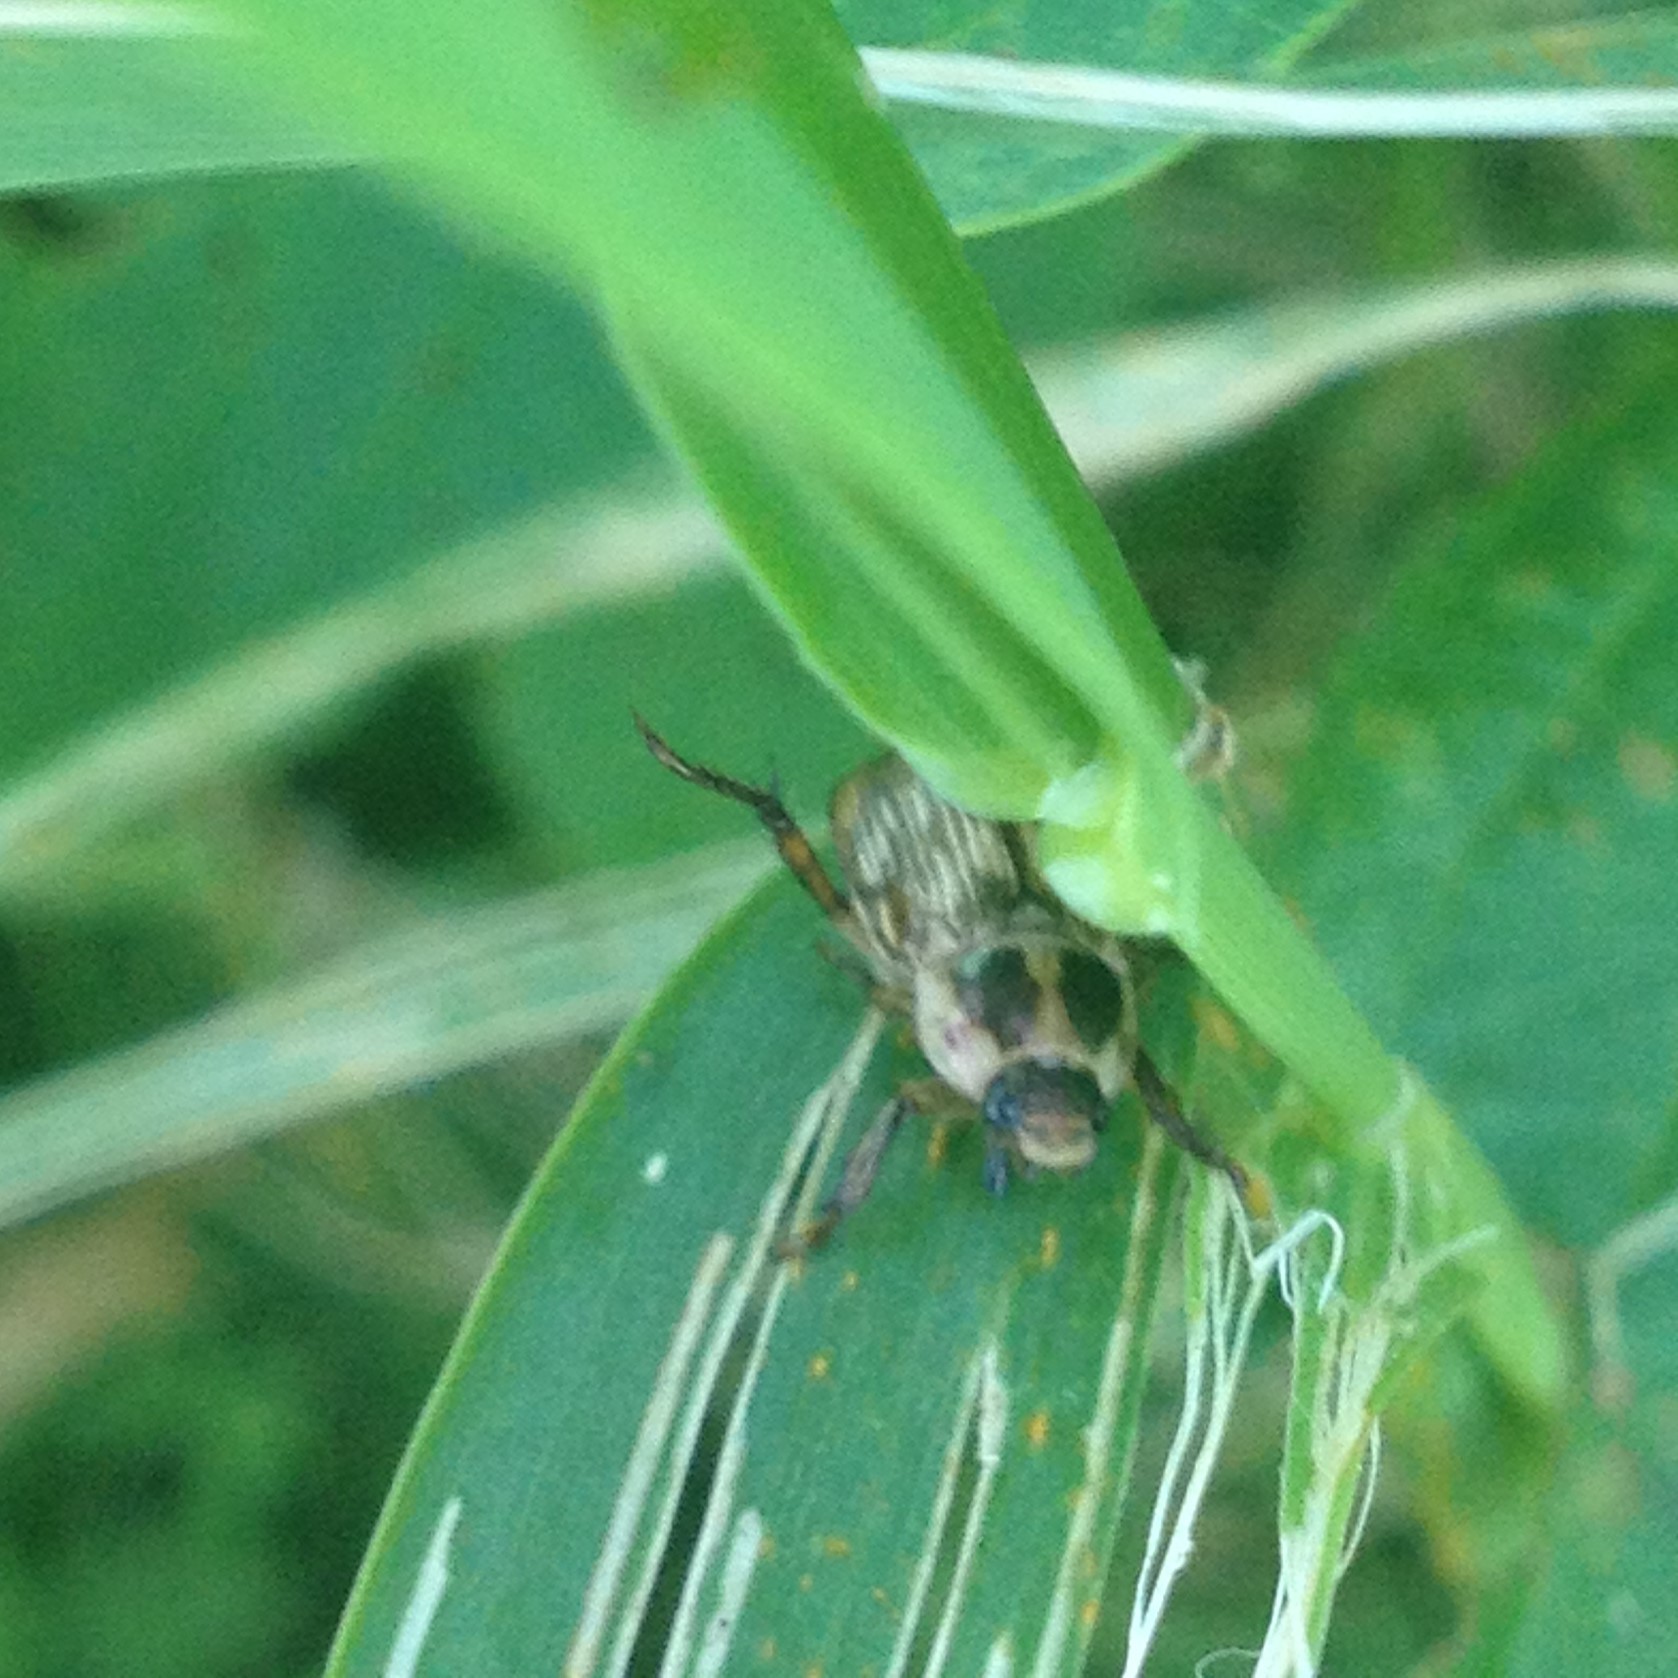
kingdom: Animalia
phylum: Arthropoda
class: Insecta
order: Coleoptera
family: Scarabaeidae
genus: Exomala
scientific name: Exomala orientalis
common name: Oriental beetle
